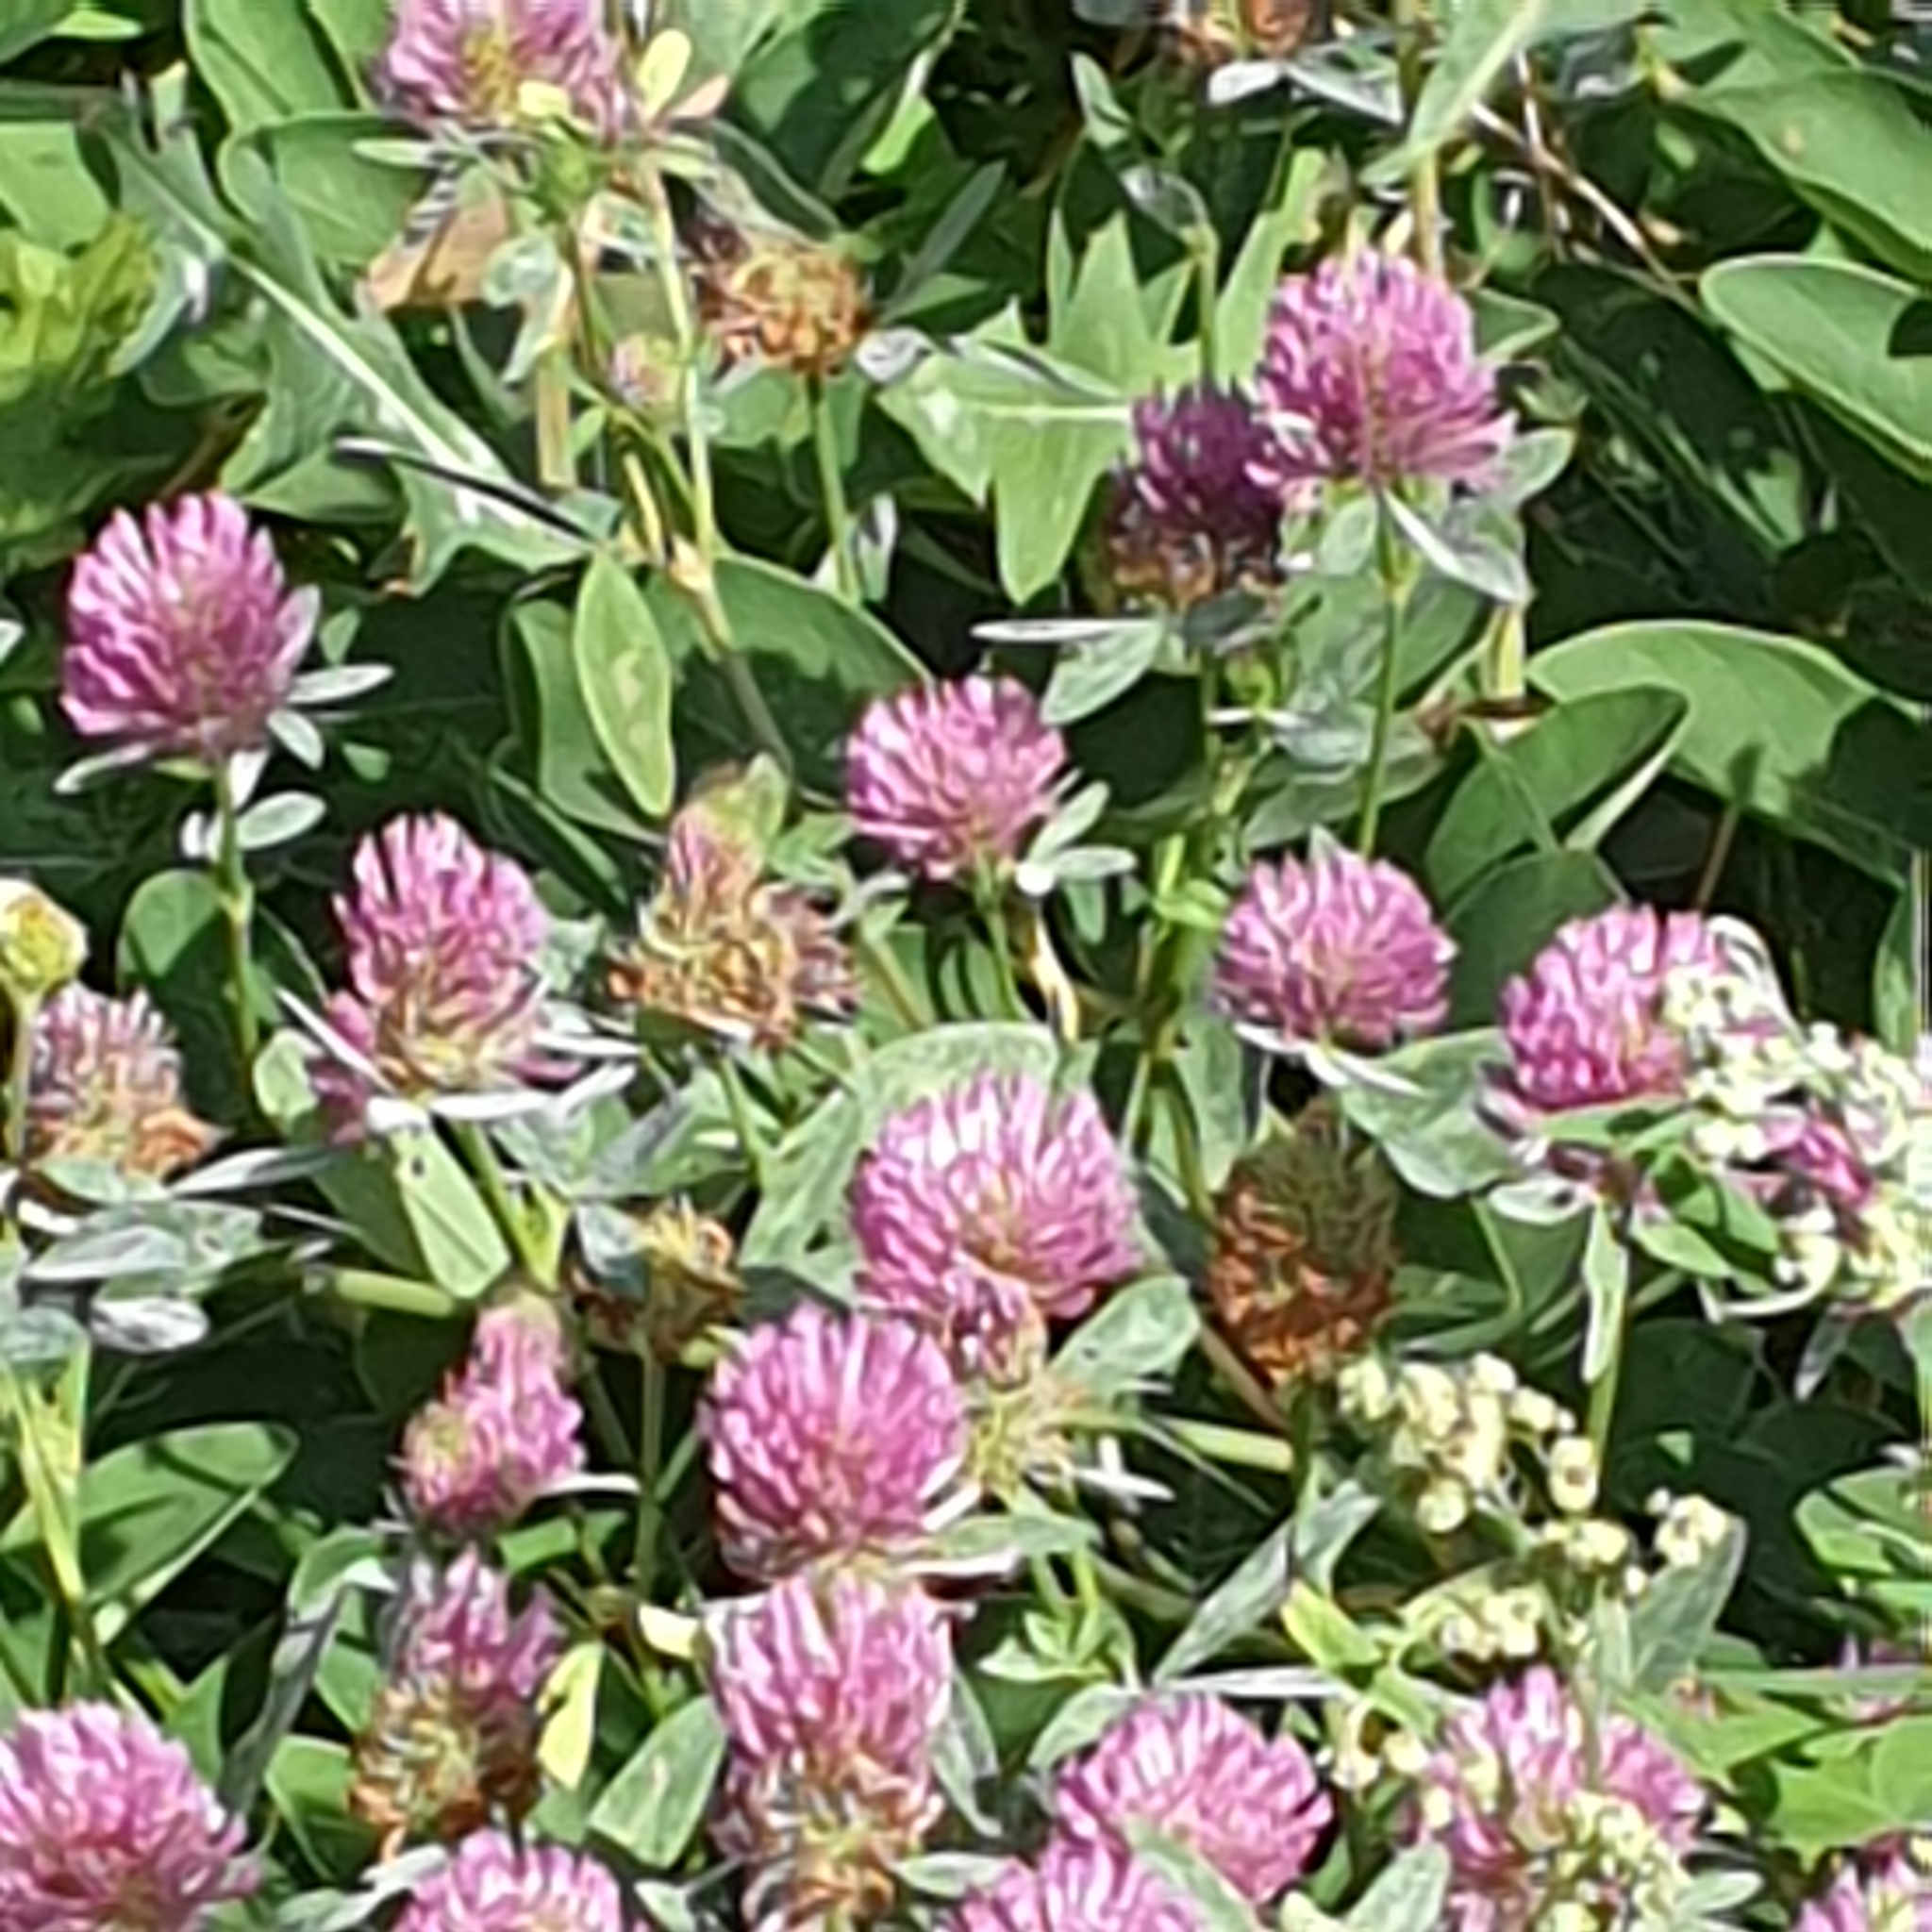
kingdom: Plantae
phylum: Tracheophyta
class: Magnoliopsida
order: Fabales
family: Fabaceae
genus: Trifolium
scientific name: Trifolium pratense
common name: Red clover
